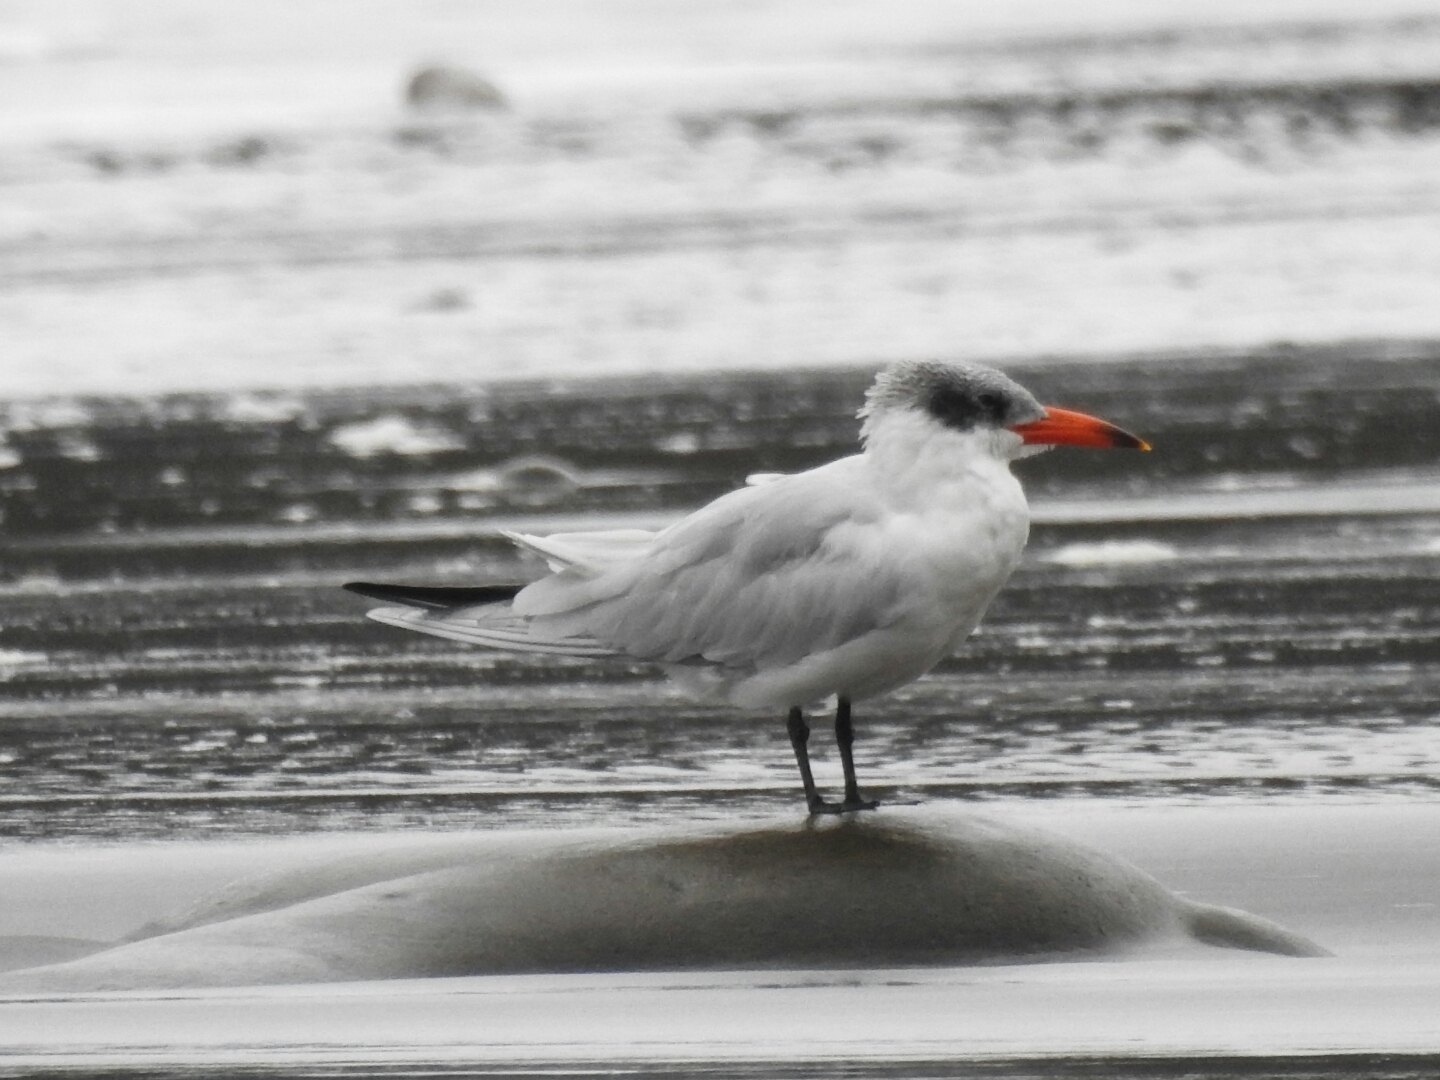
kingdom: Animalia
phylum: Chordata
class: Aves
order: Charadriiformes
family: Laridae
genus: Hydroprogne
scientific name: Hydroprogne caspia
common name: Caspian tern
